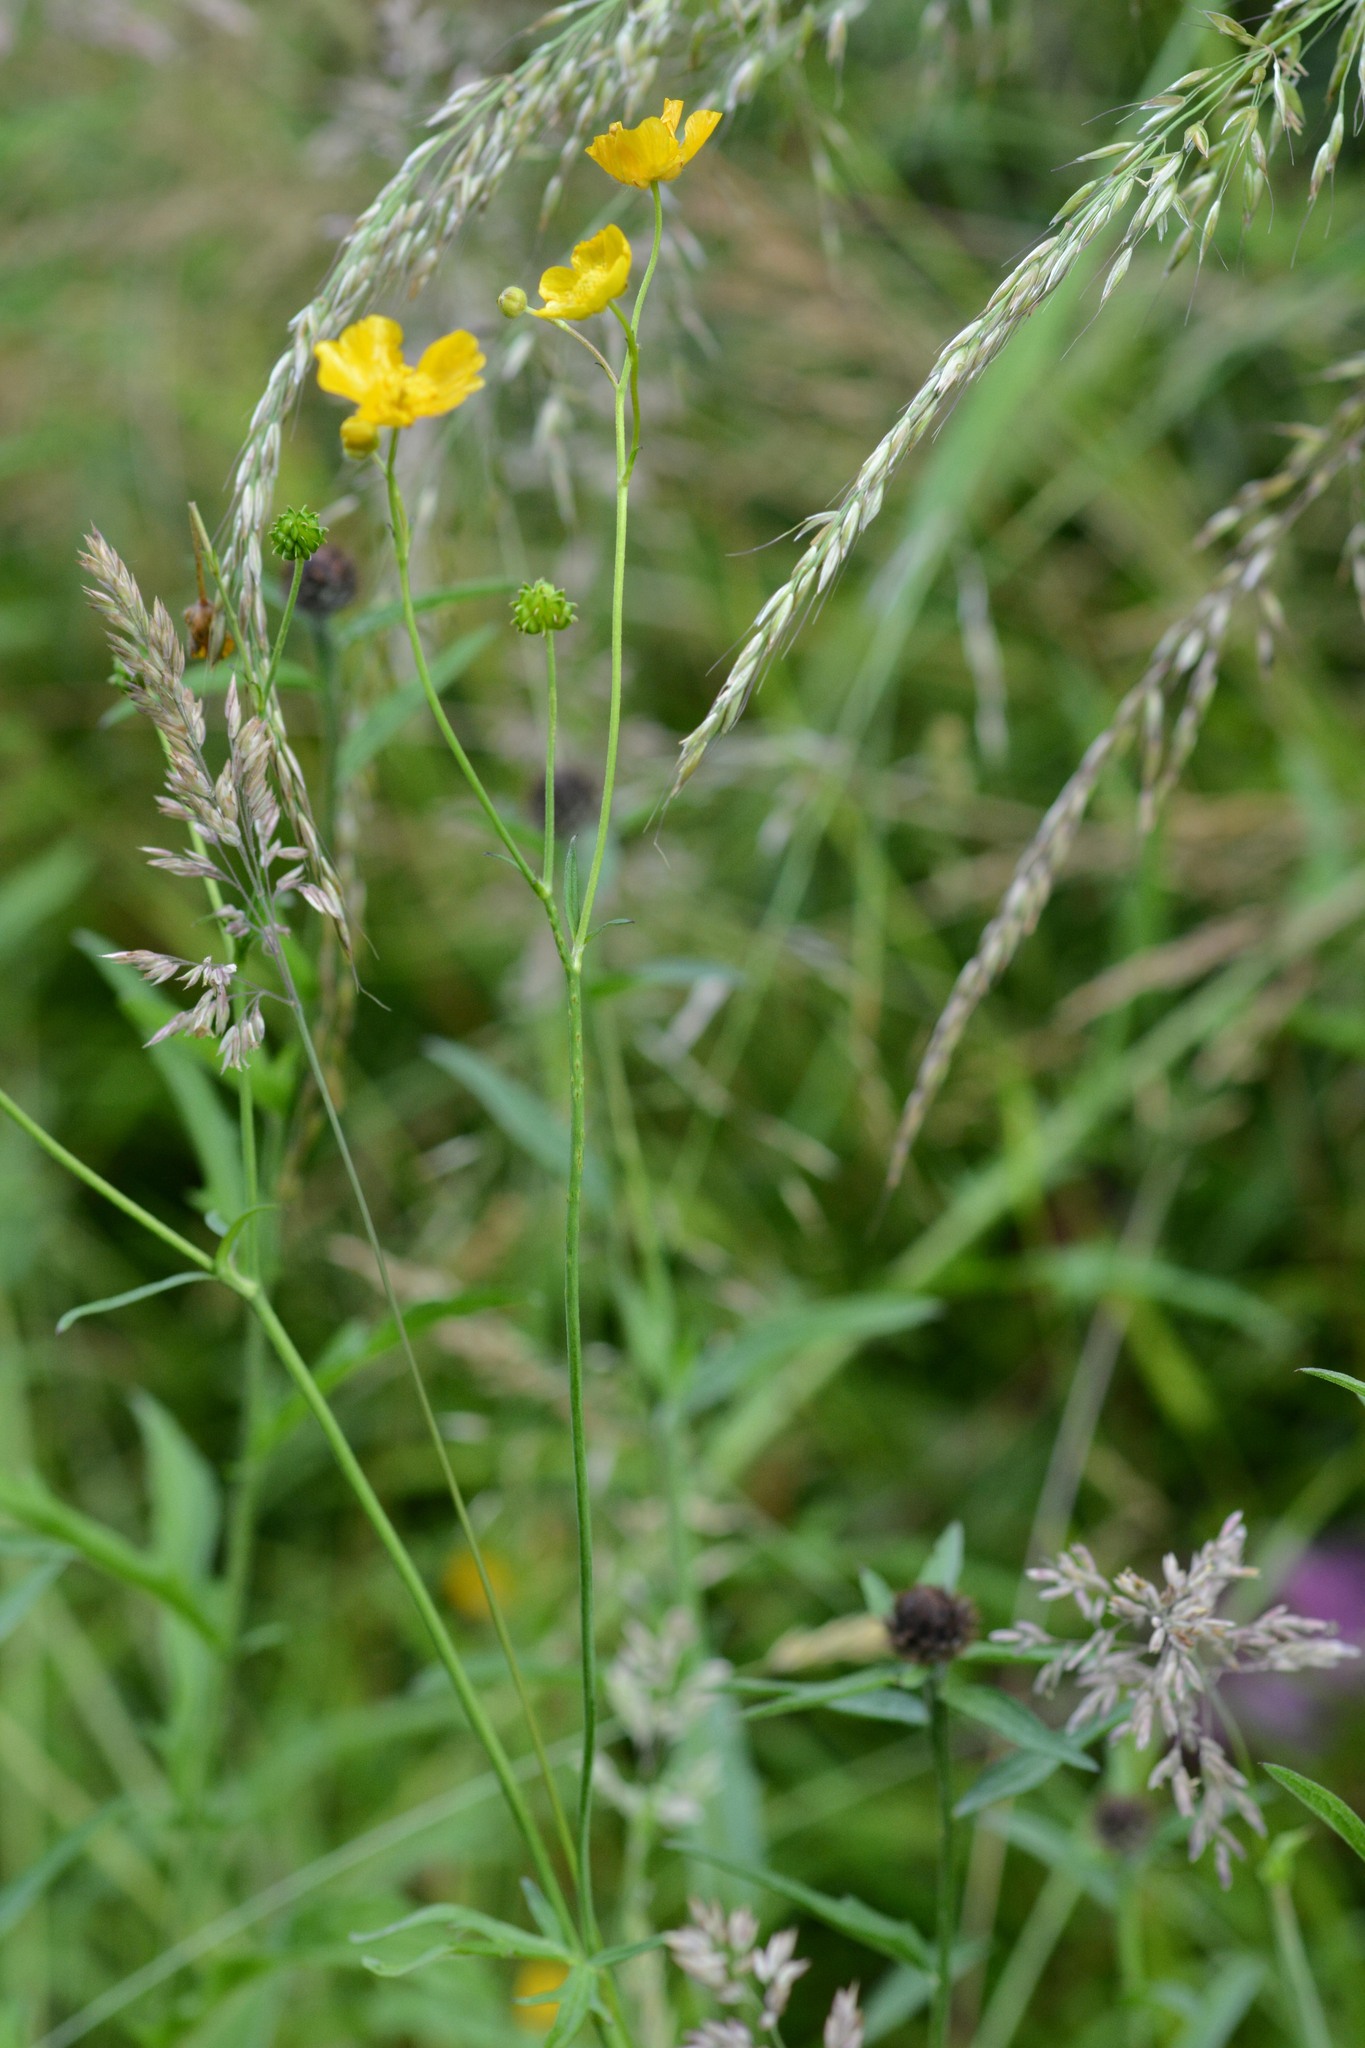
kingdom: Plantae
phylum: Tracheophyta
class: Magnoliopsida
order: Ranunculales
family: Ranunculaceae
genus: Ranunculus
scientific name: Ranunculus acris
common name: Meadow buttercup
